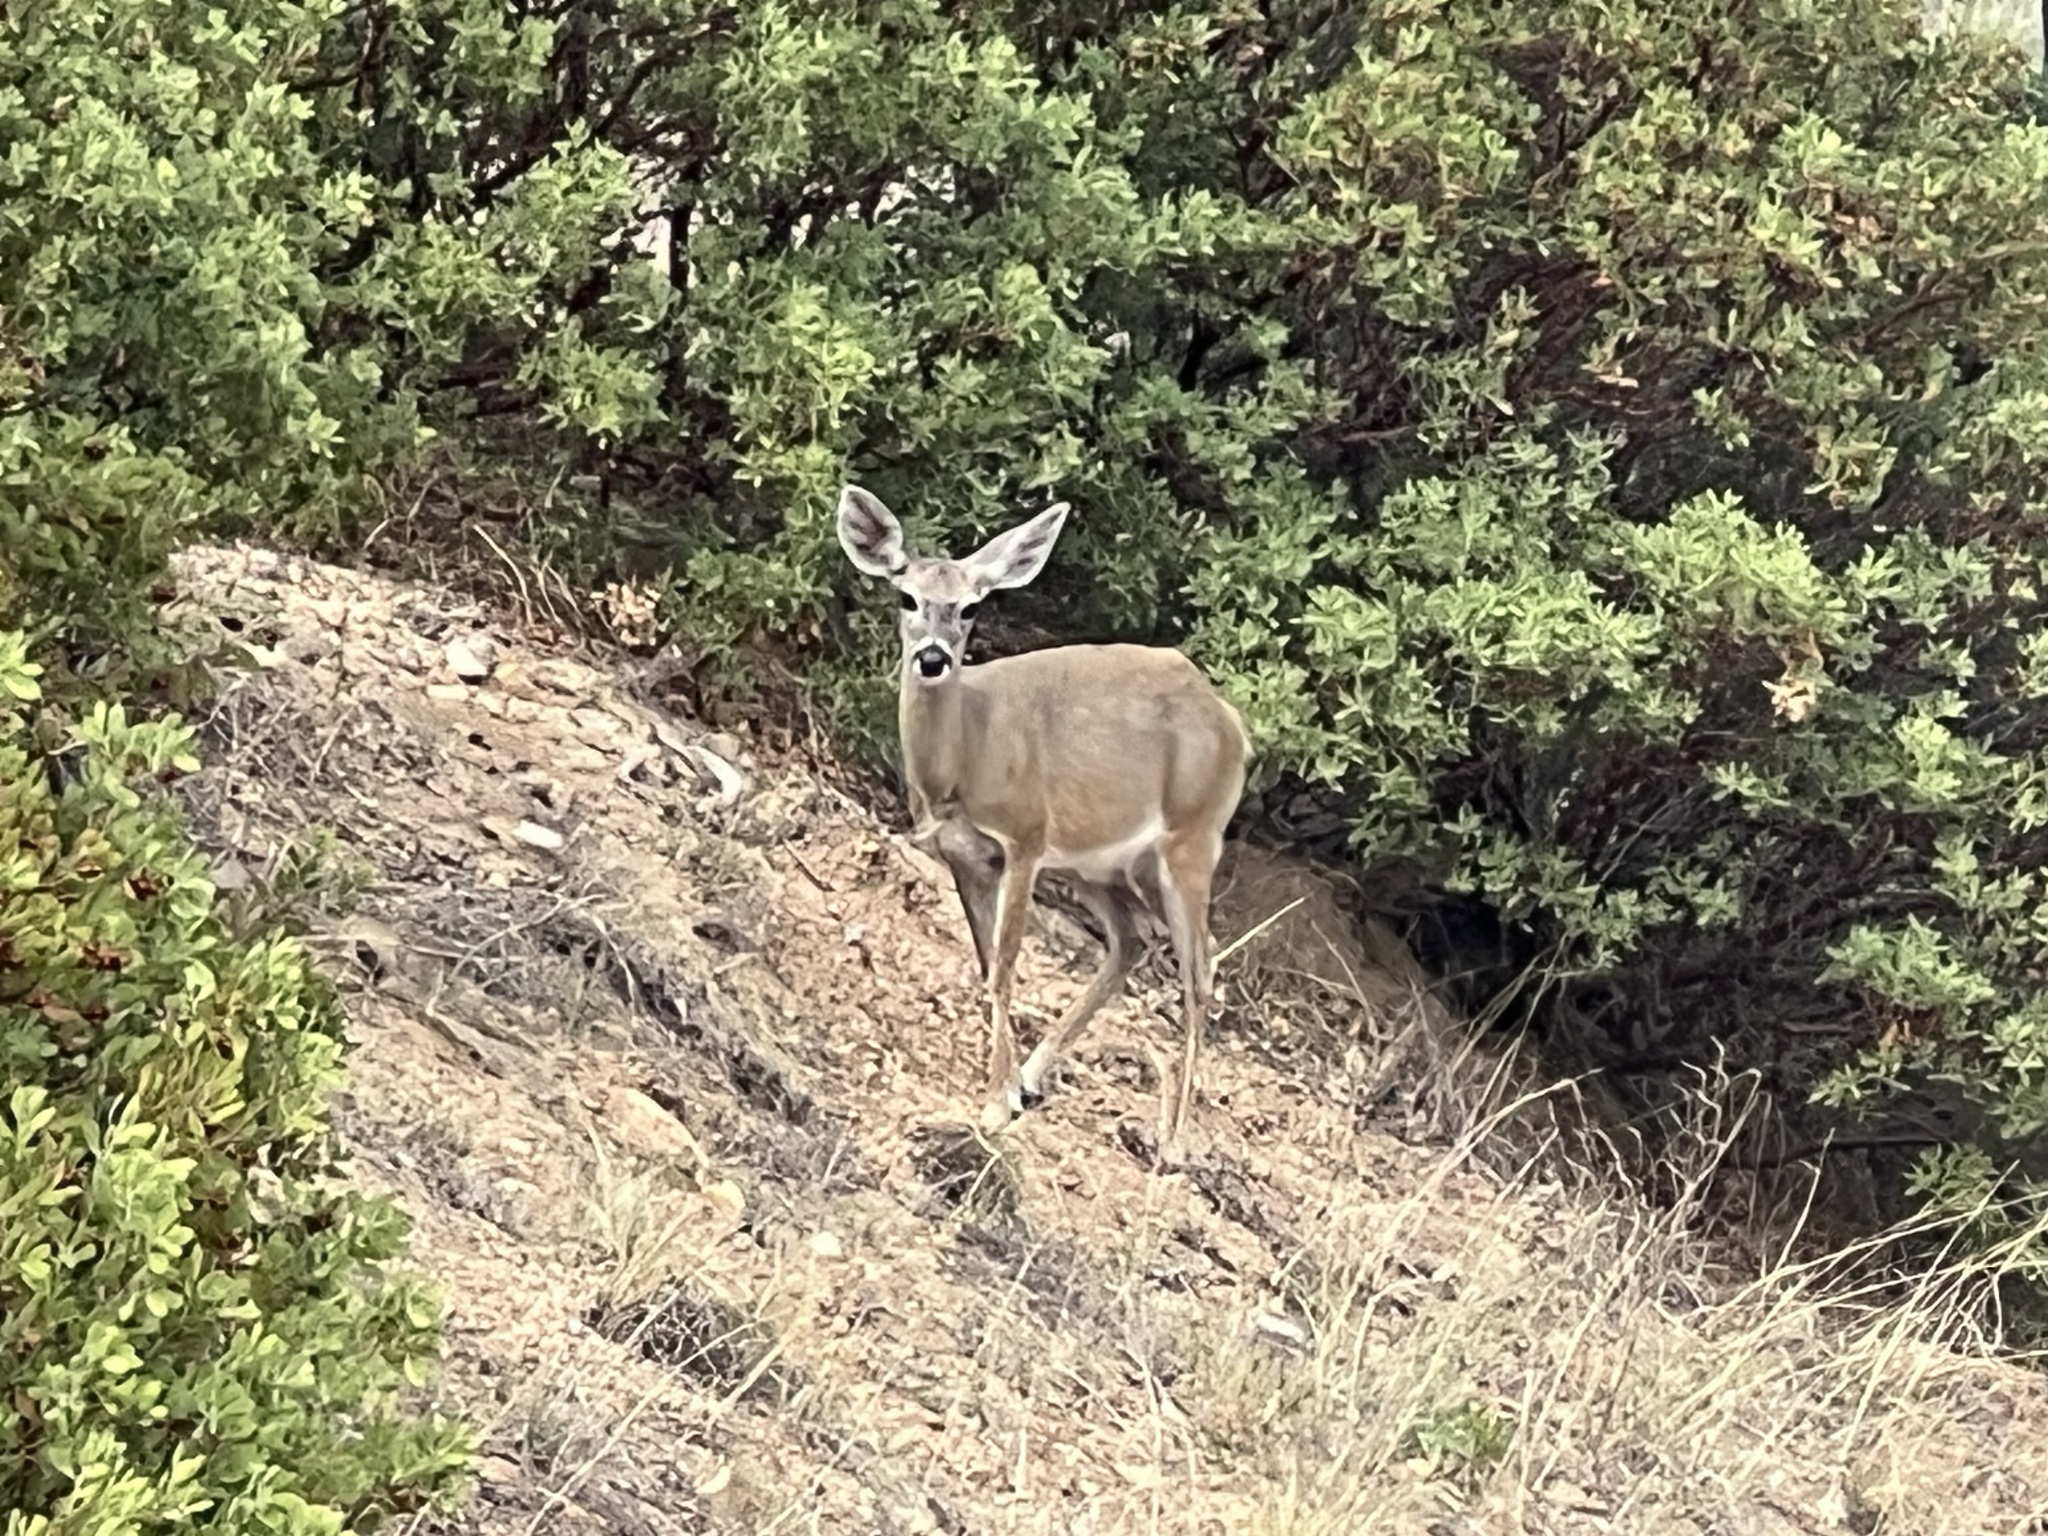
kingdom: Animalia
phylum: Chordata
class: Mammalia
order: Artiodactyla
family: Cervidae
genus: Odocoileus
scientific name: Odocoileus virginianus
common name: White-tailed deer
